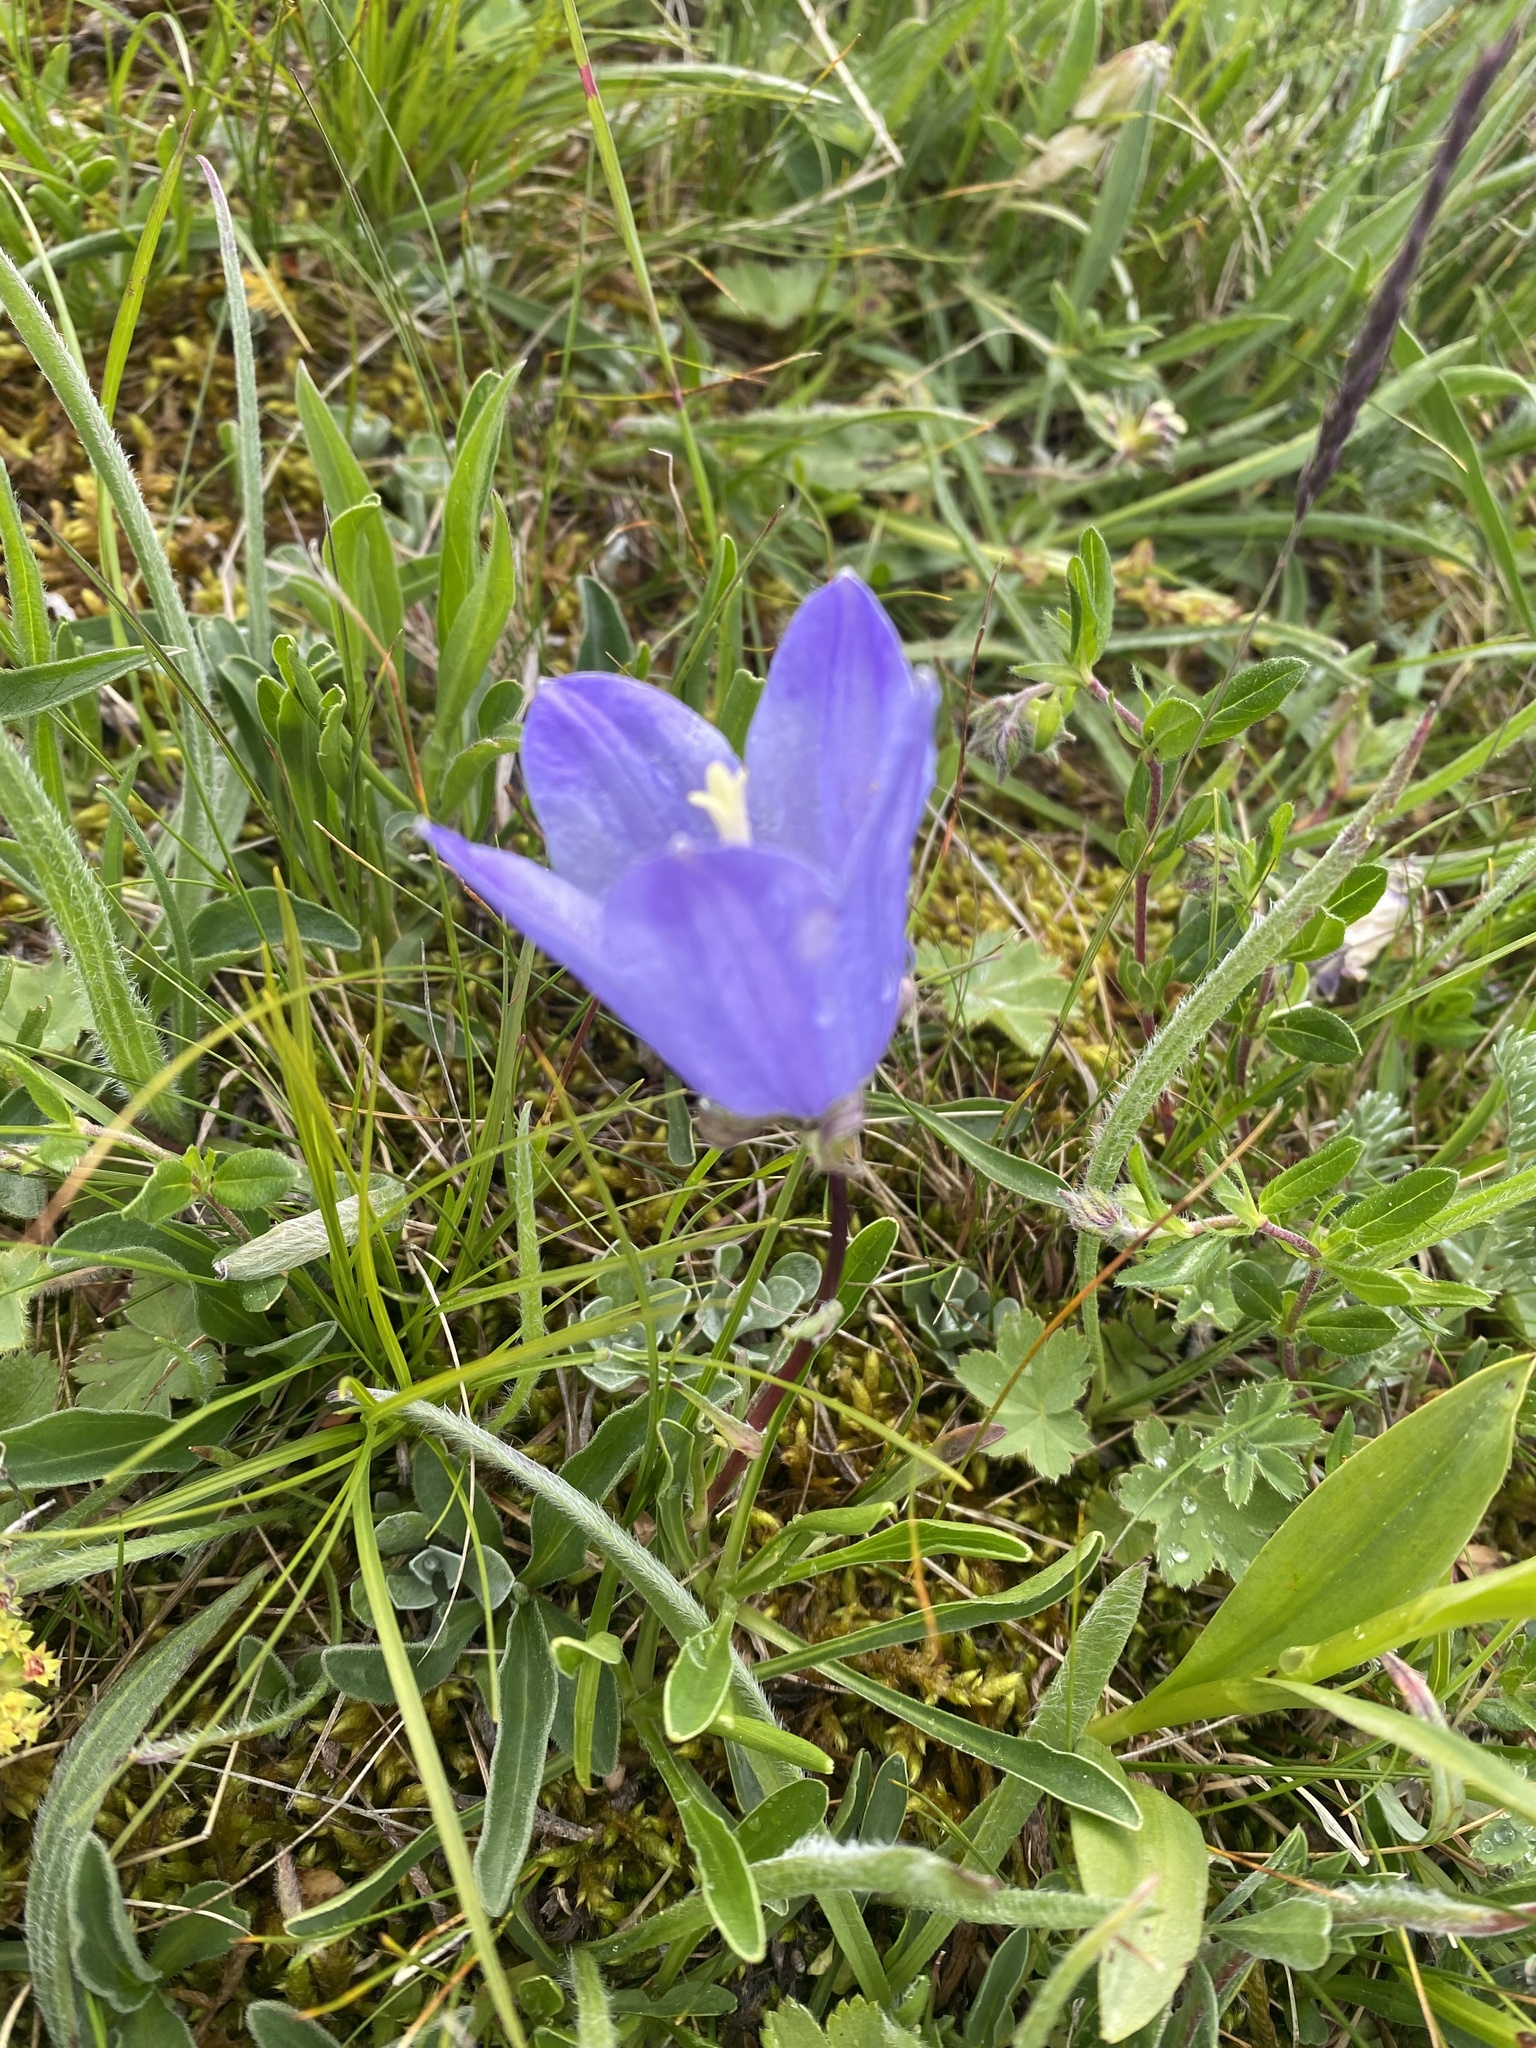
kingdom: Plantae
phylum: Tracheophyta
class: Magnoliopsida
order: Asterales
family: Campanulaceae
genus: Campanula
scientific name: Campanula tridentata
